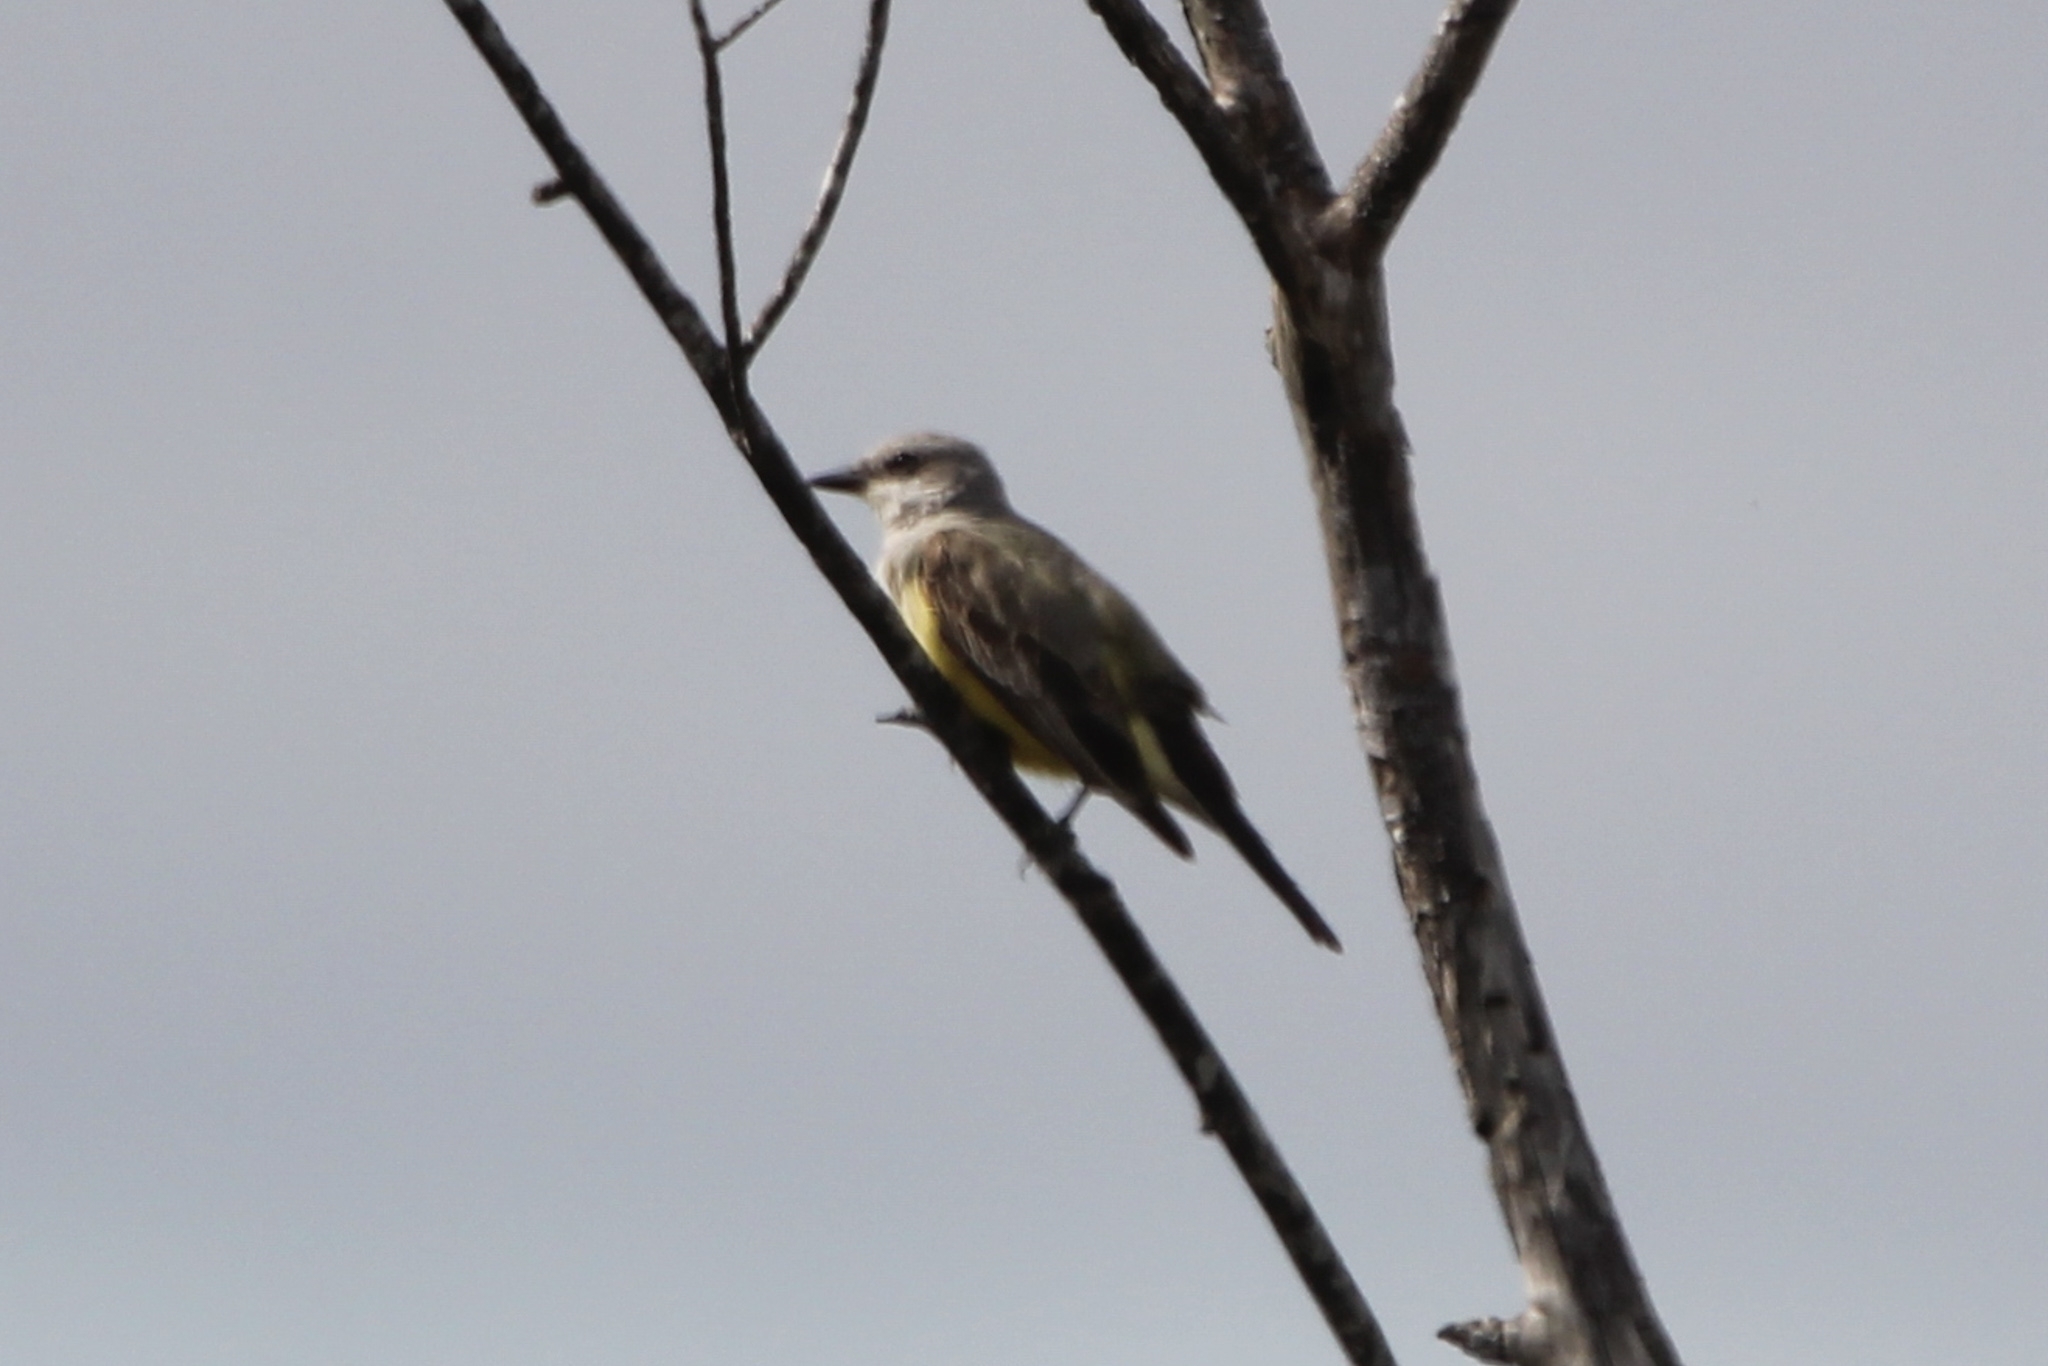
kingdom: Animalia
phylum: Chordata
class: Aves
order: Passeriformes
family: Tyrannidae
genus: Tyrannus
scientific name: Tyrannus verticalis
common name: Western kingbird
